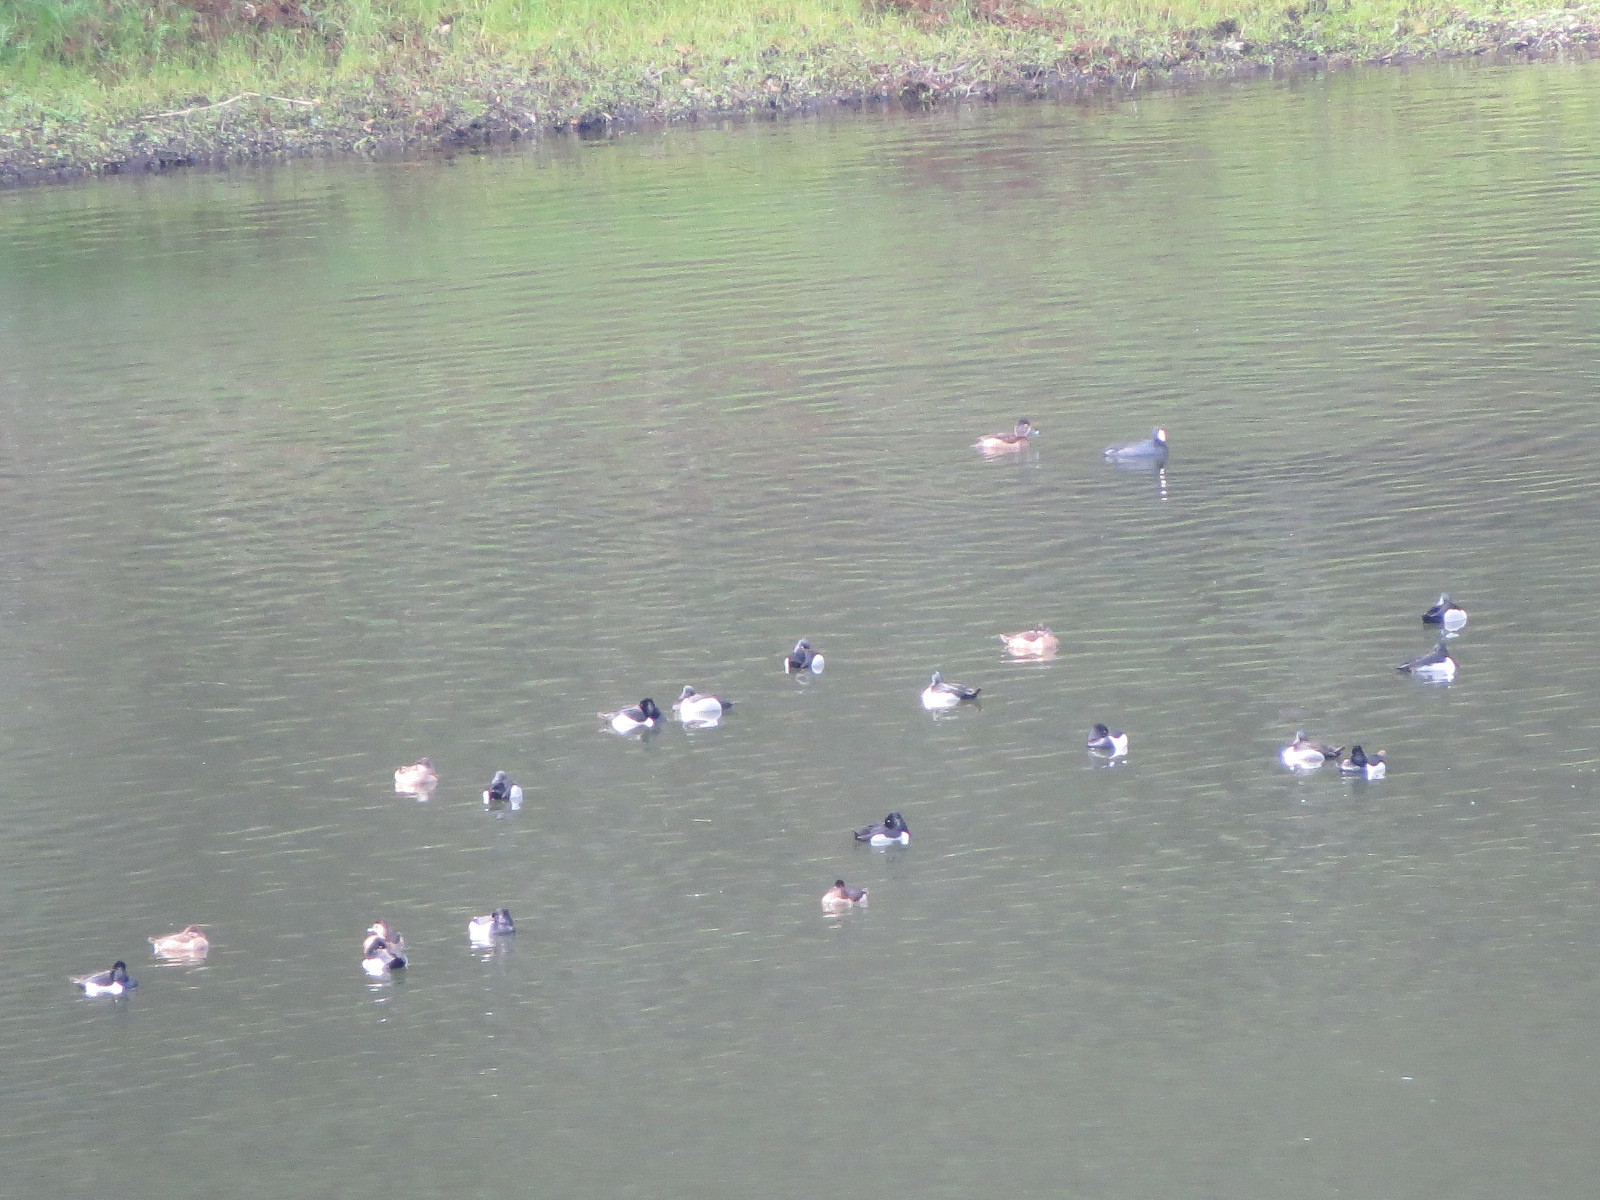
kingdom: Animalia
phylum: Chordata
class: Aves
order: Anseriformes
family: Anatidae
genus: Aythya
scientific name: Aythya collaris
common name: Ring-necked duck
